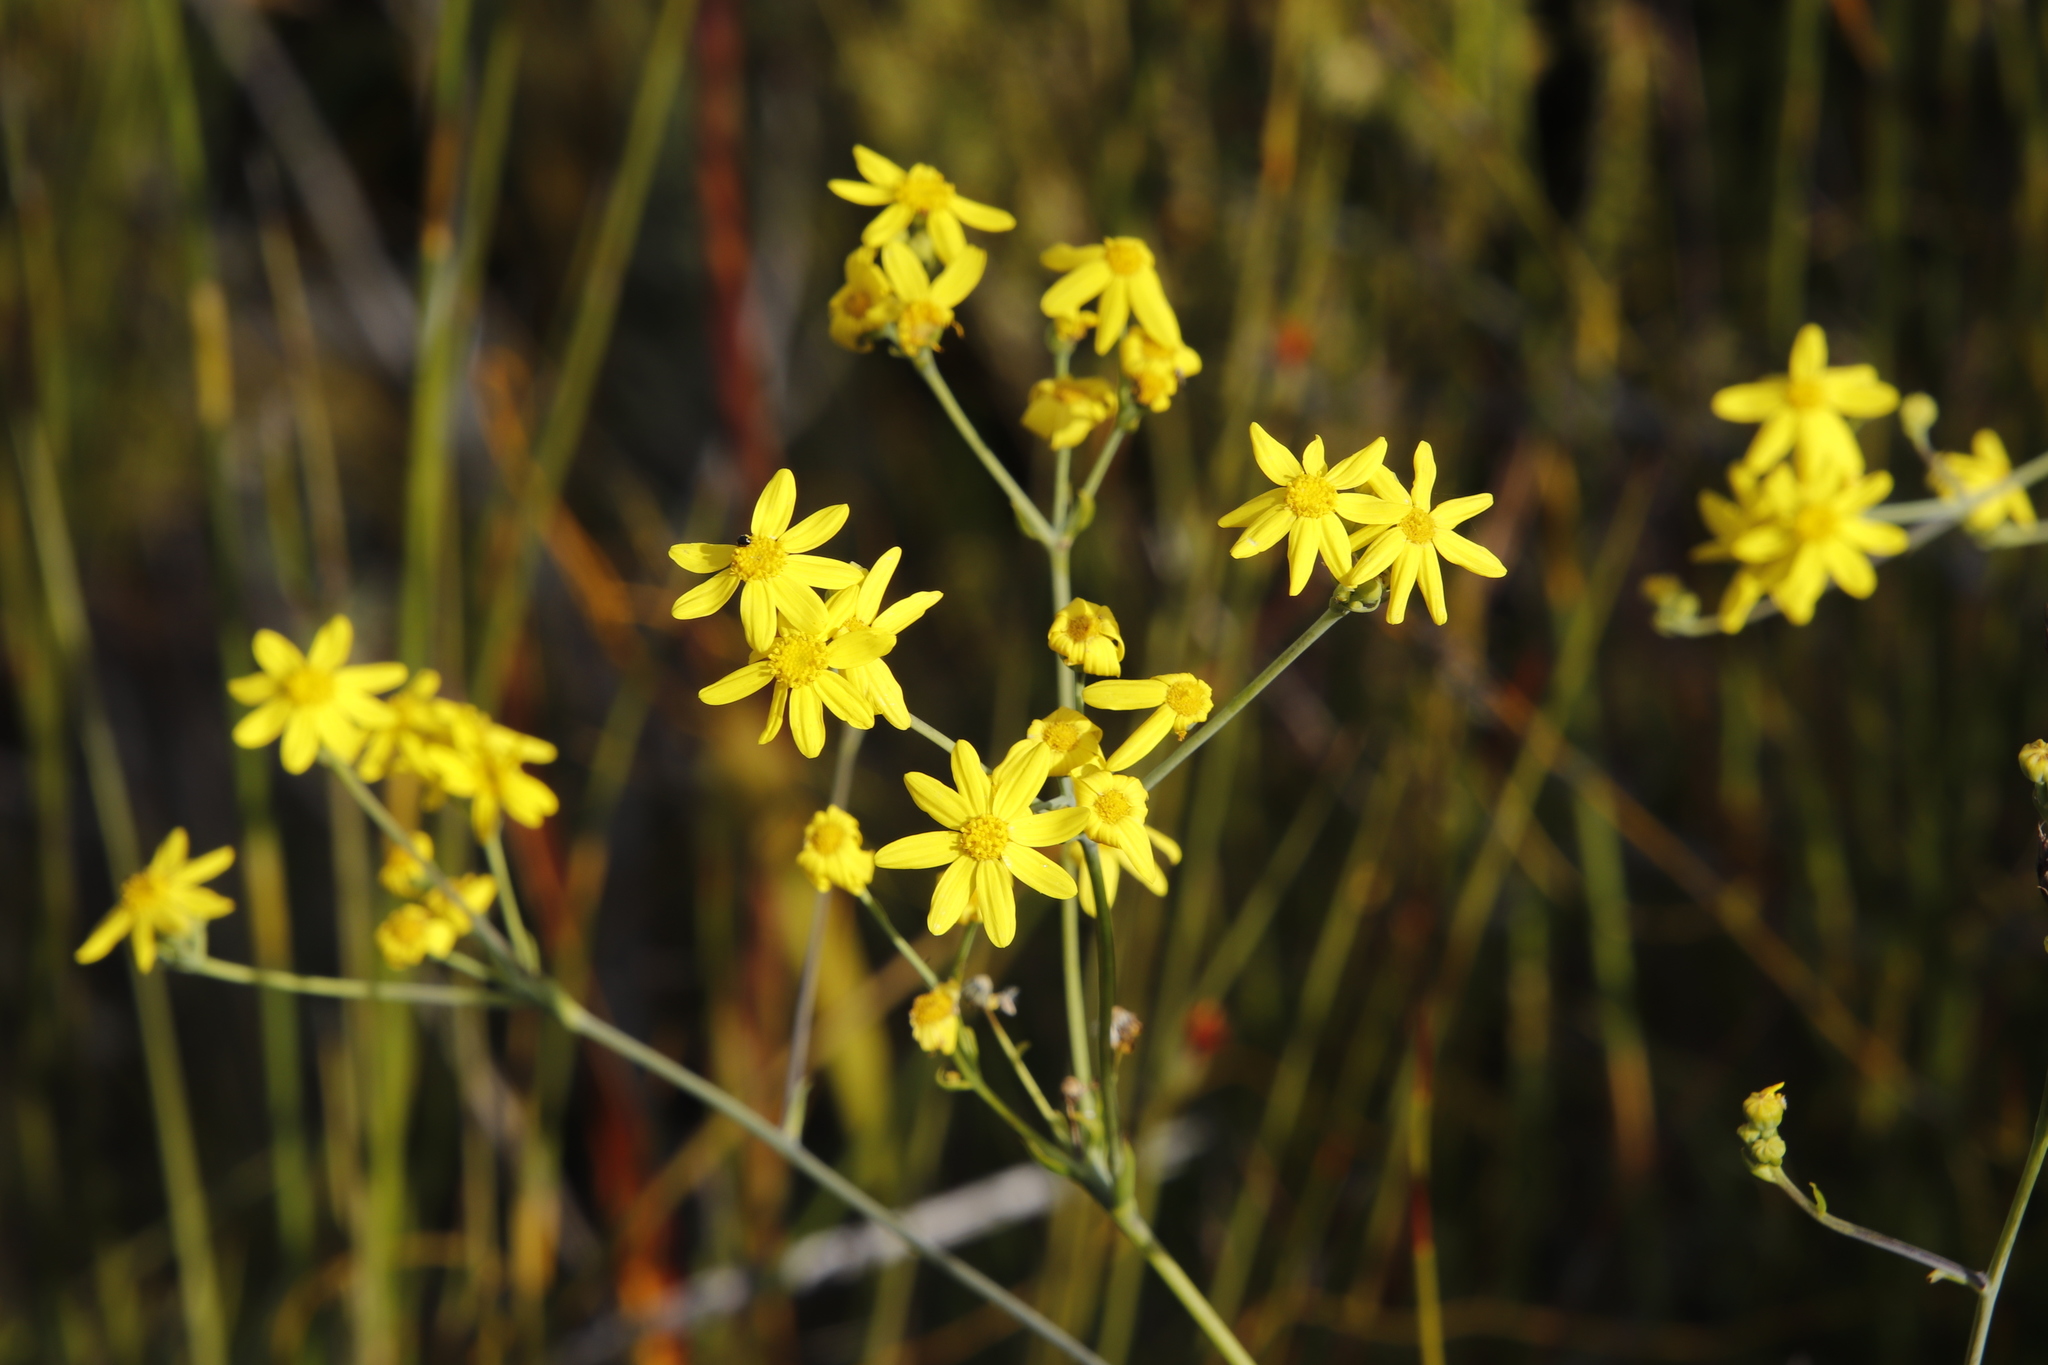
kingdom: Plantae
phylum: Tracheophyta
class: Magnoliopsida
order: Asterales
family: Asteraceae
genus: Othonna
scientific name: Othonna quinquedentata
